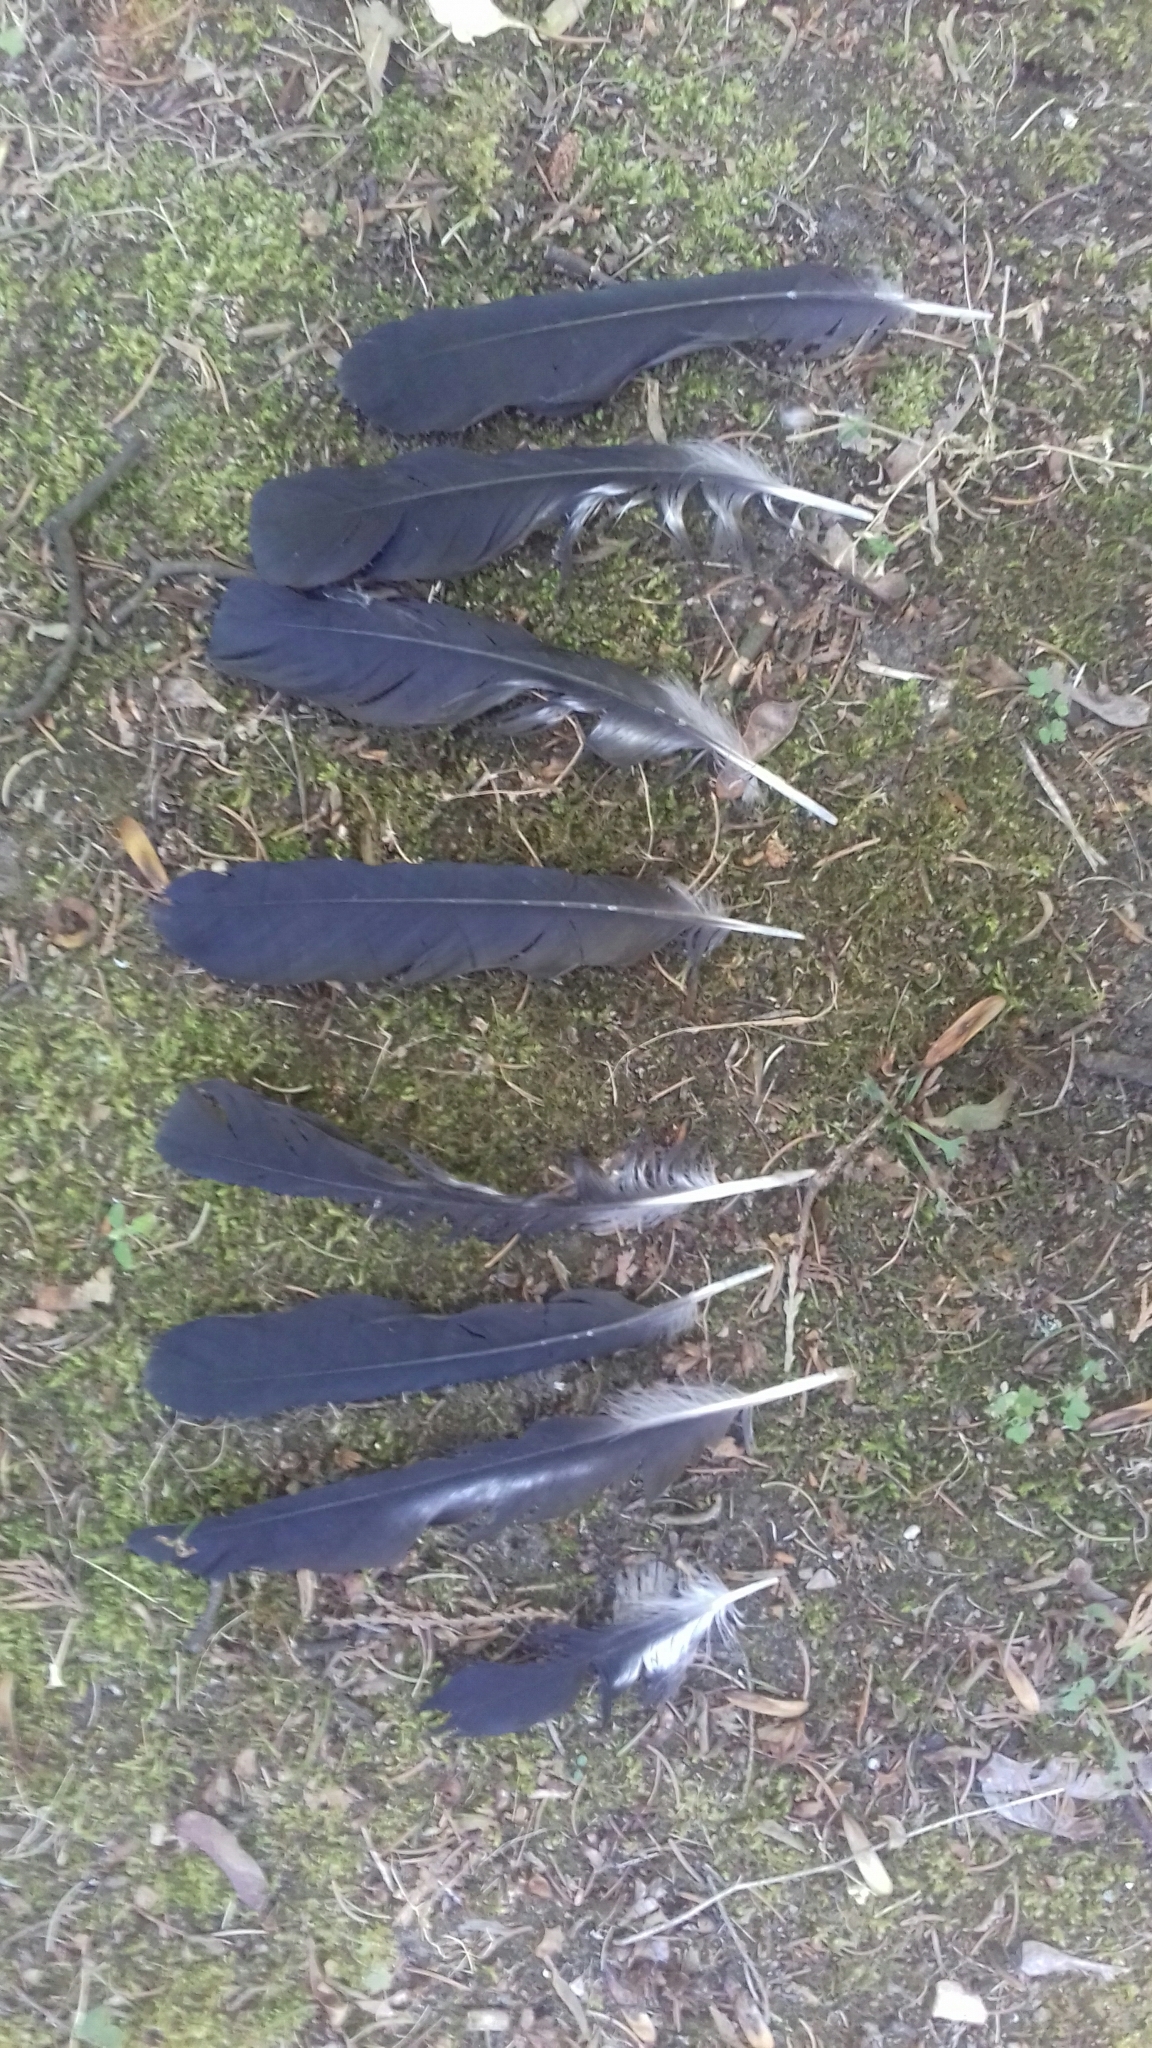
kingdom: Animalia
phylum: Chordata
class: Aves
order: Passeriformes
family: Corvidae
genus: Garrulus
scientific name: Garrulus glandarius
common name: Eurasian jay
